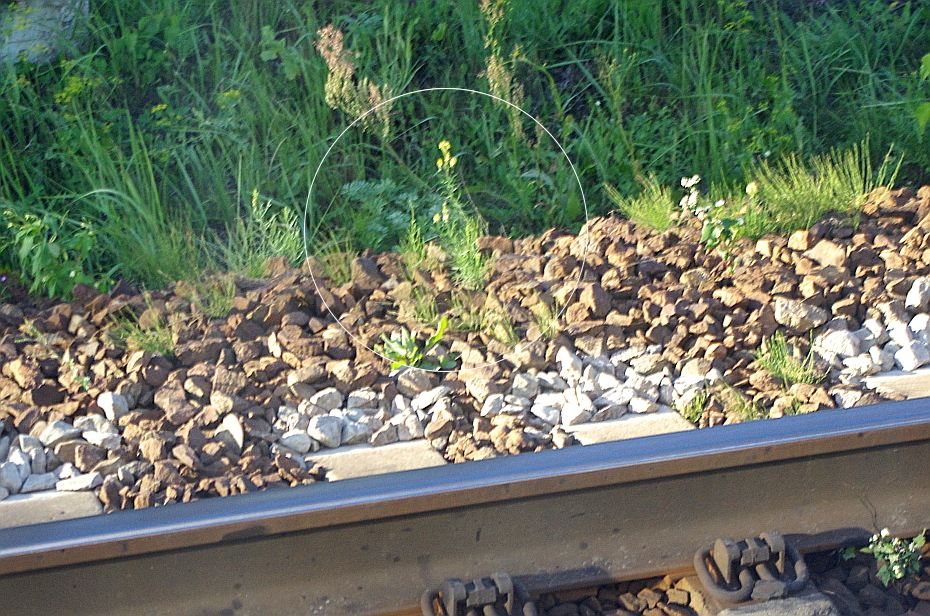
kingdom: Plantae
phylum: Tracheophyta
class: Magnoliopsida
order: Lamiales
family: Plantaginaceae
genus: Linaria
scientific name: Linaria vulgaris
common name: Butter and eggs
